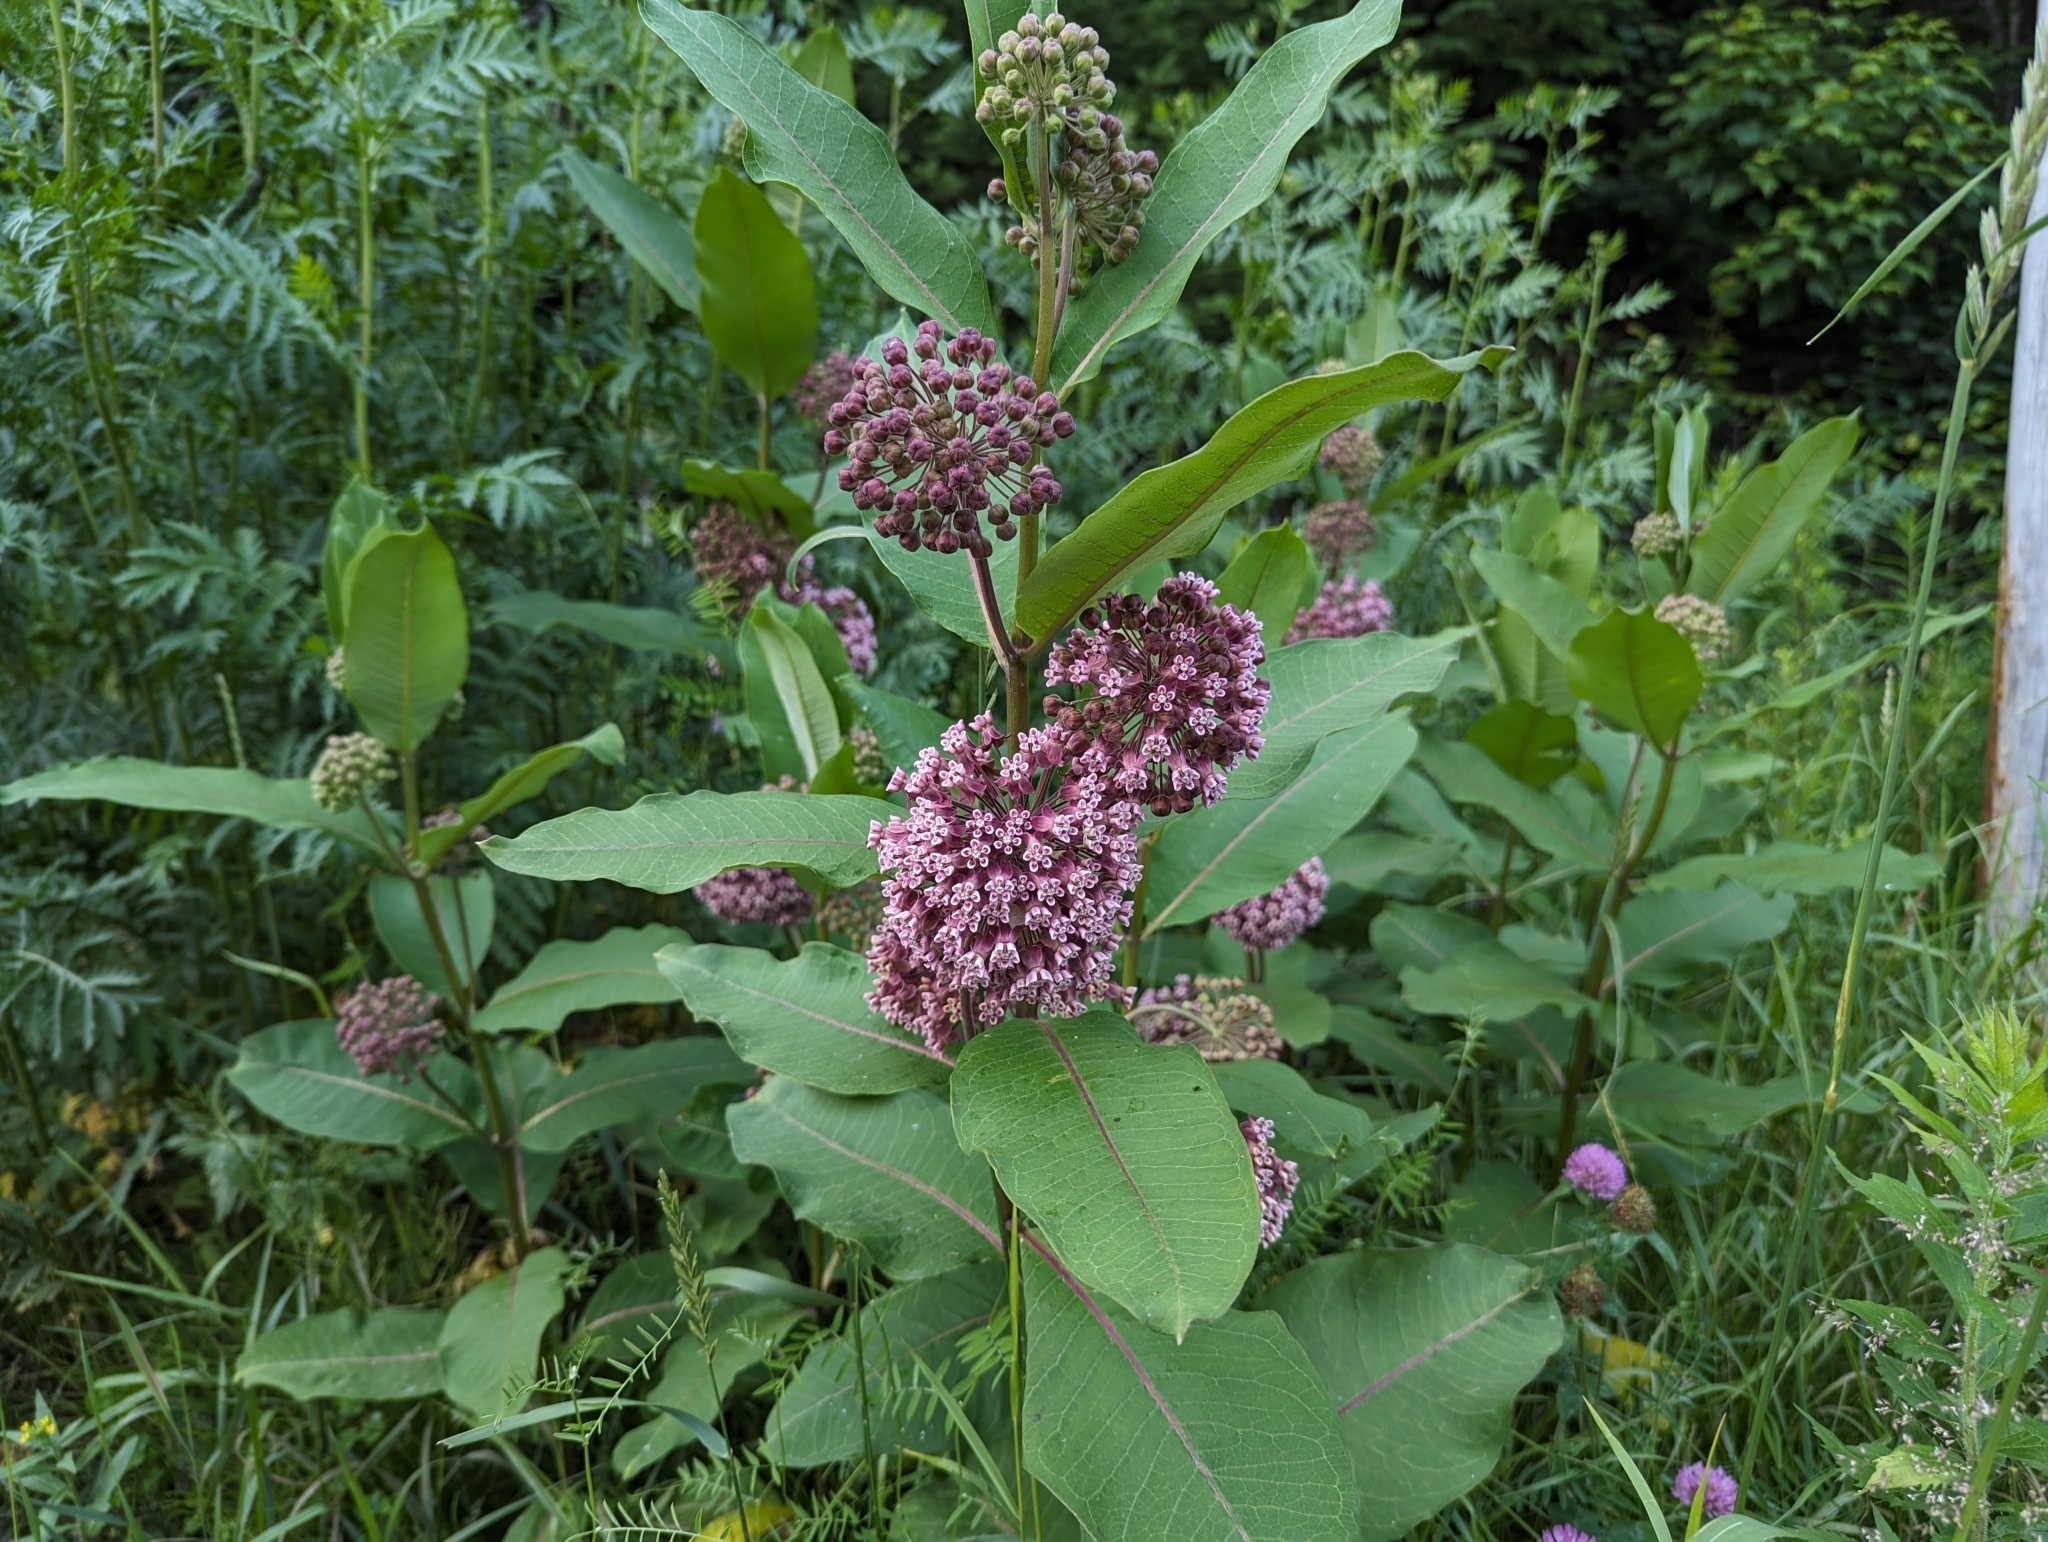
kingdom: Plantae
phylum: Tracheophyta
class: Magnoliopsida
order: Gentianales
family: Apocynaceae
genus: Asclepias
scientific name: Asclepias syriaca
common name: Common milkweed
